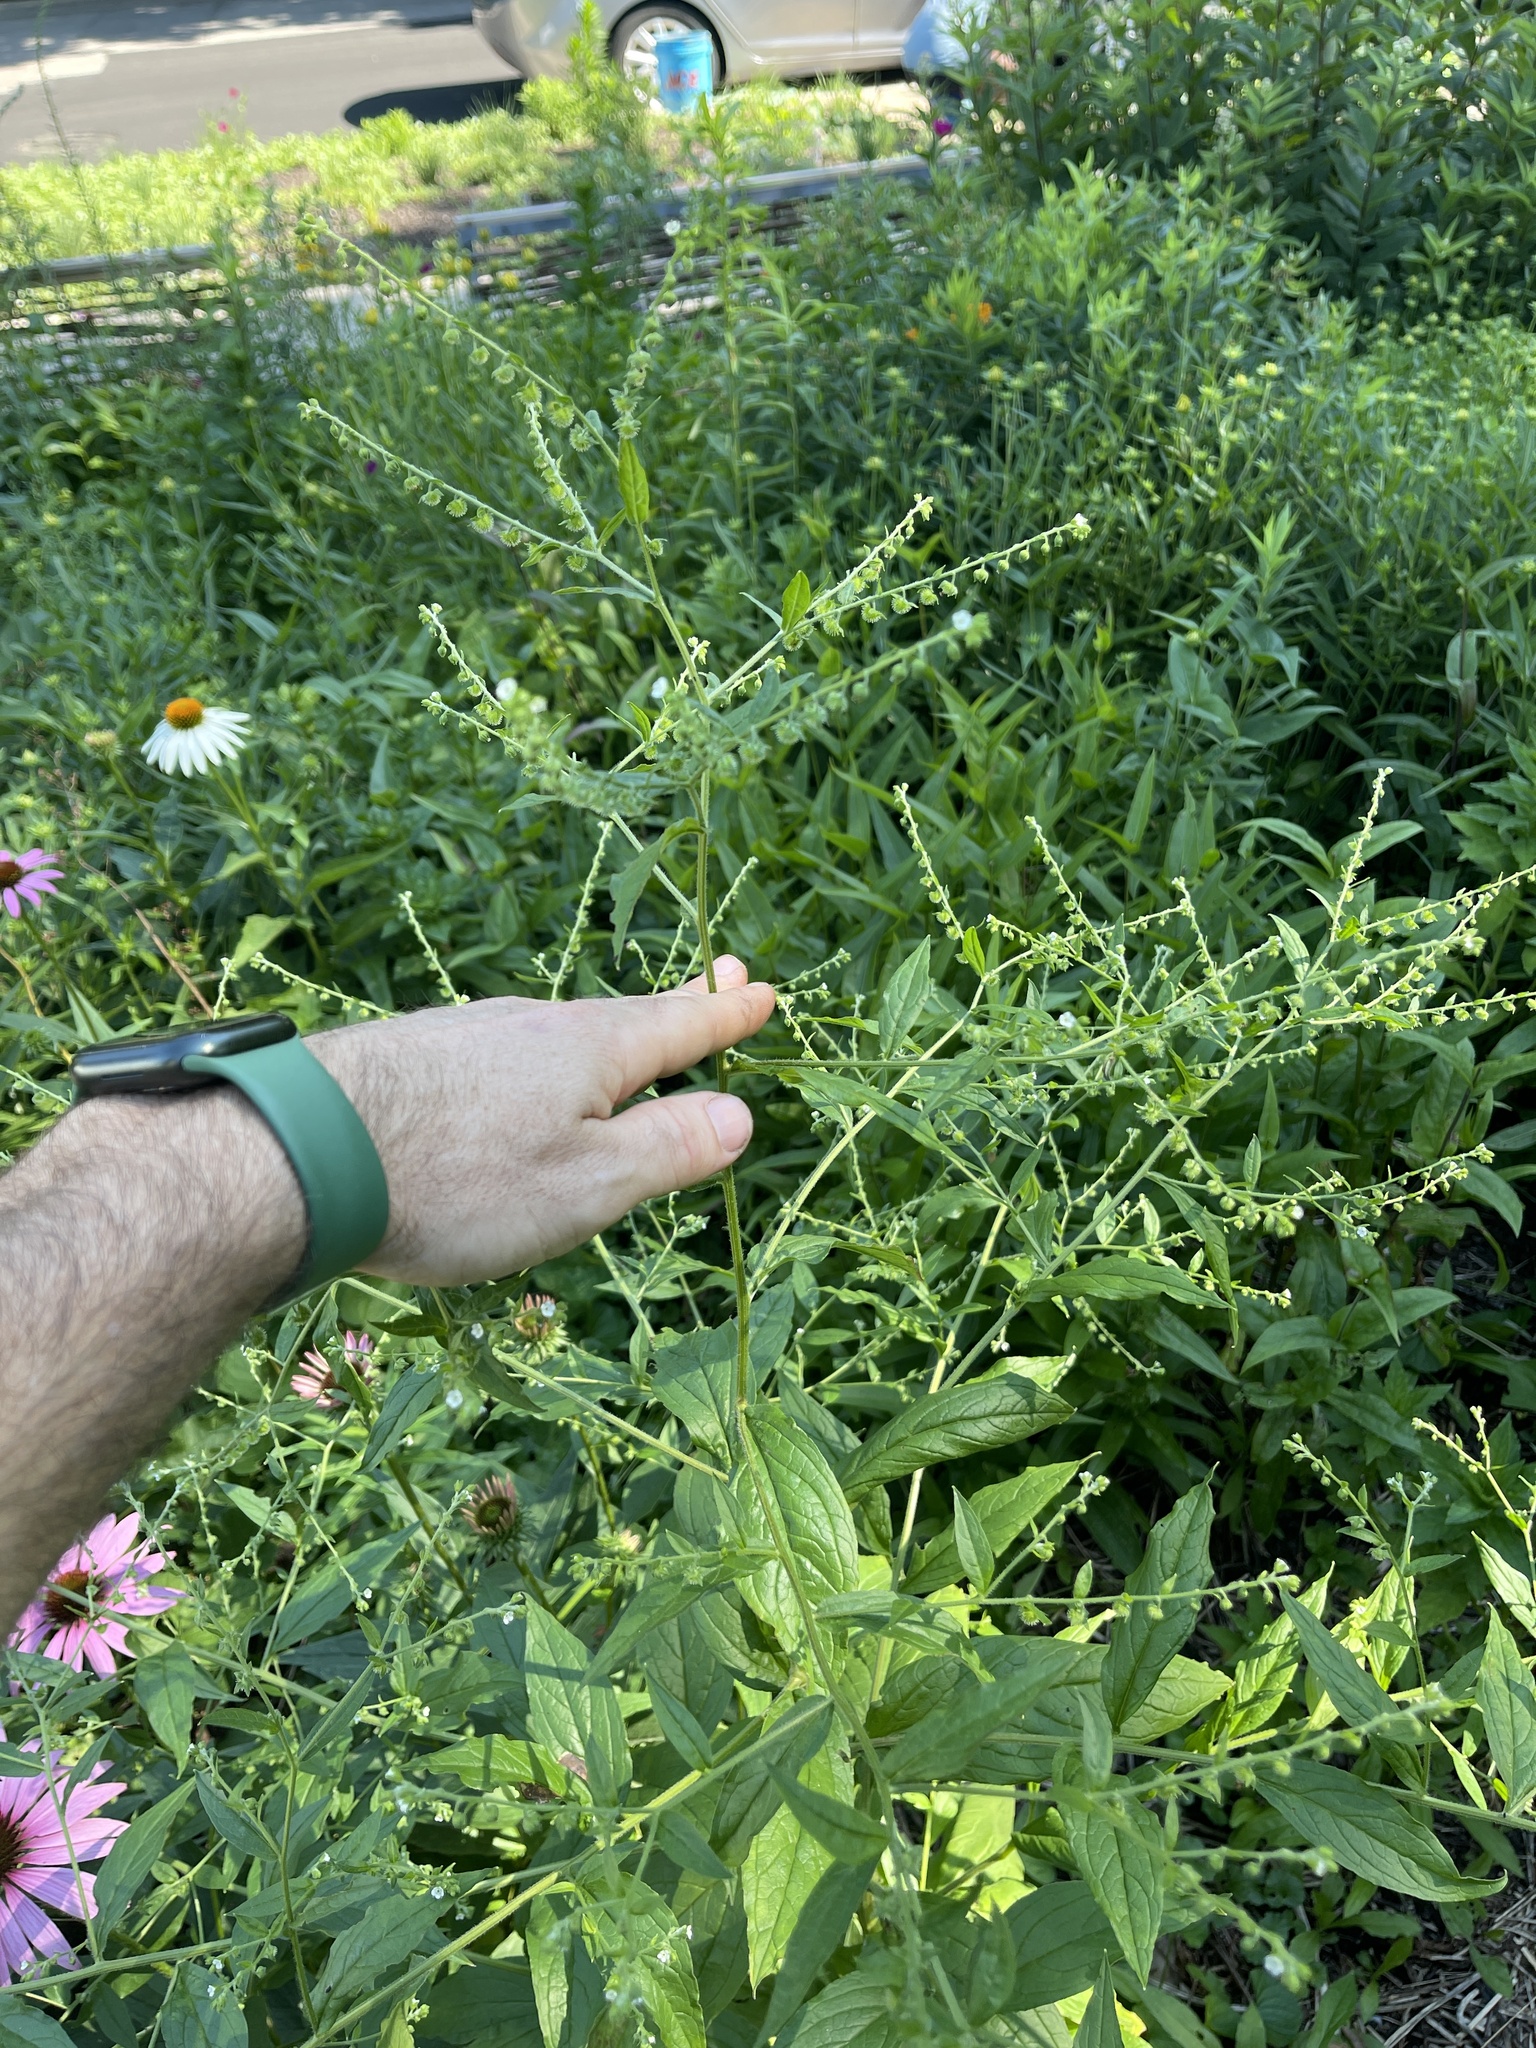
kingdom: Plantae
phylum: Tracheophyta
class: Magnoliopsida
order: Boraginales
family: Boraginaceae
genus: Hackelia
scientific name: Hackelia virginiana
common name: Beggar's-lice
